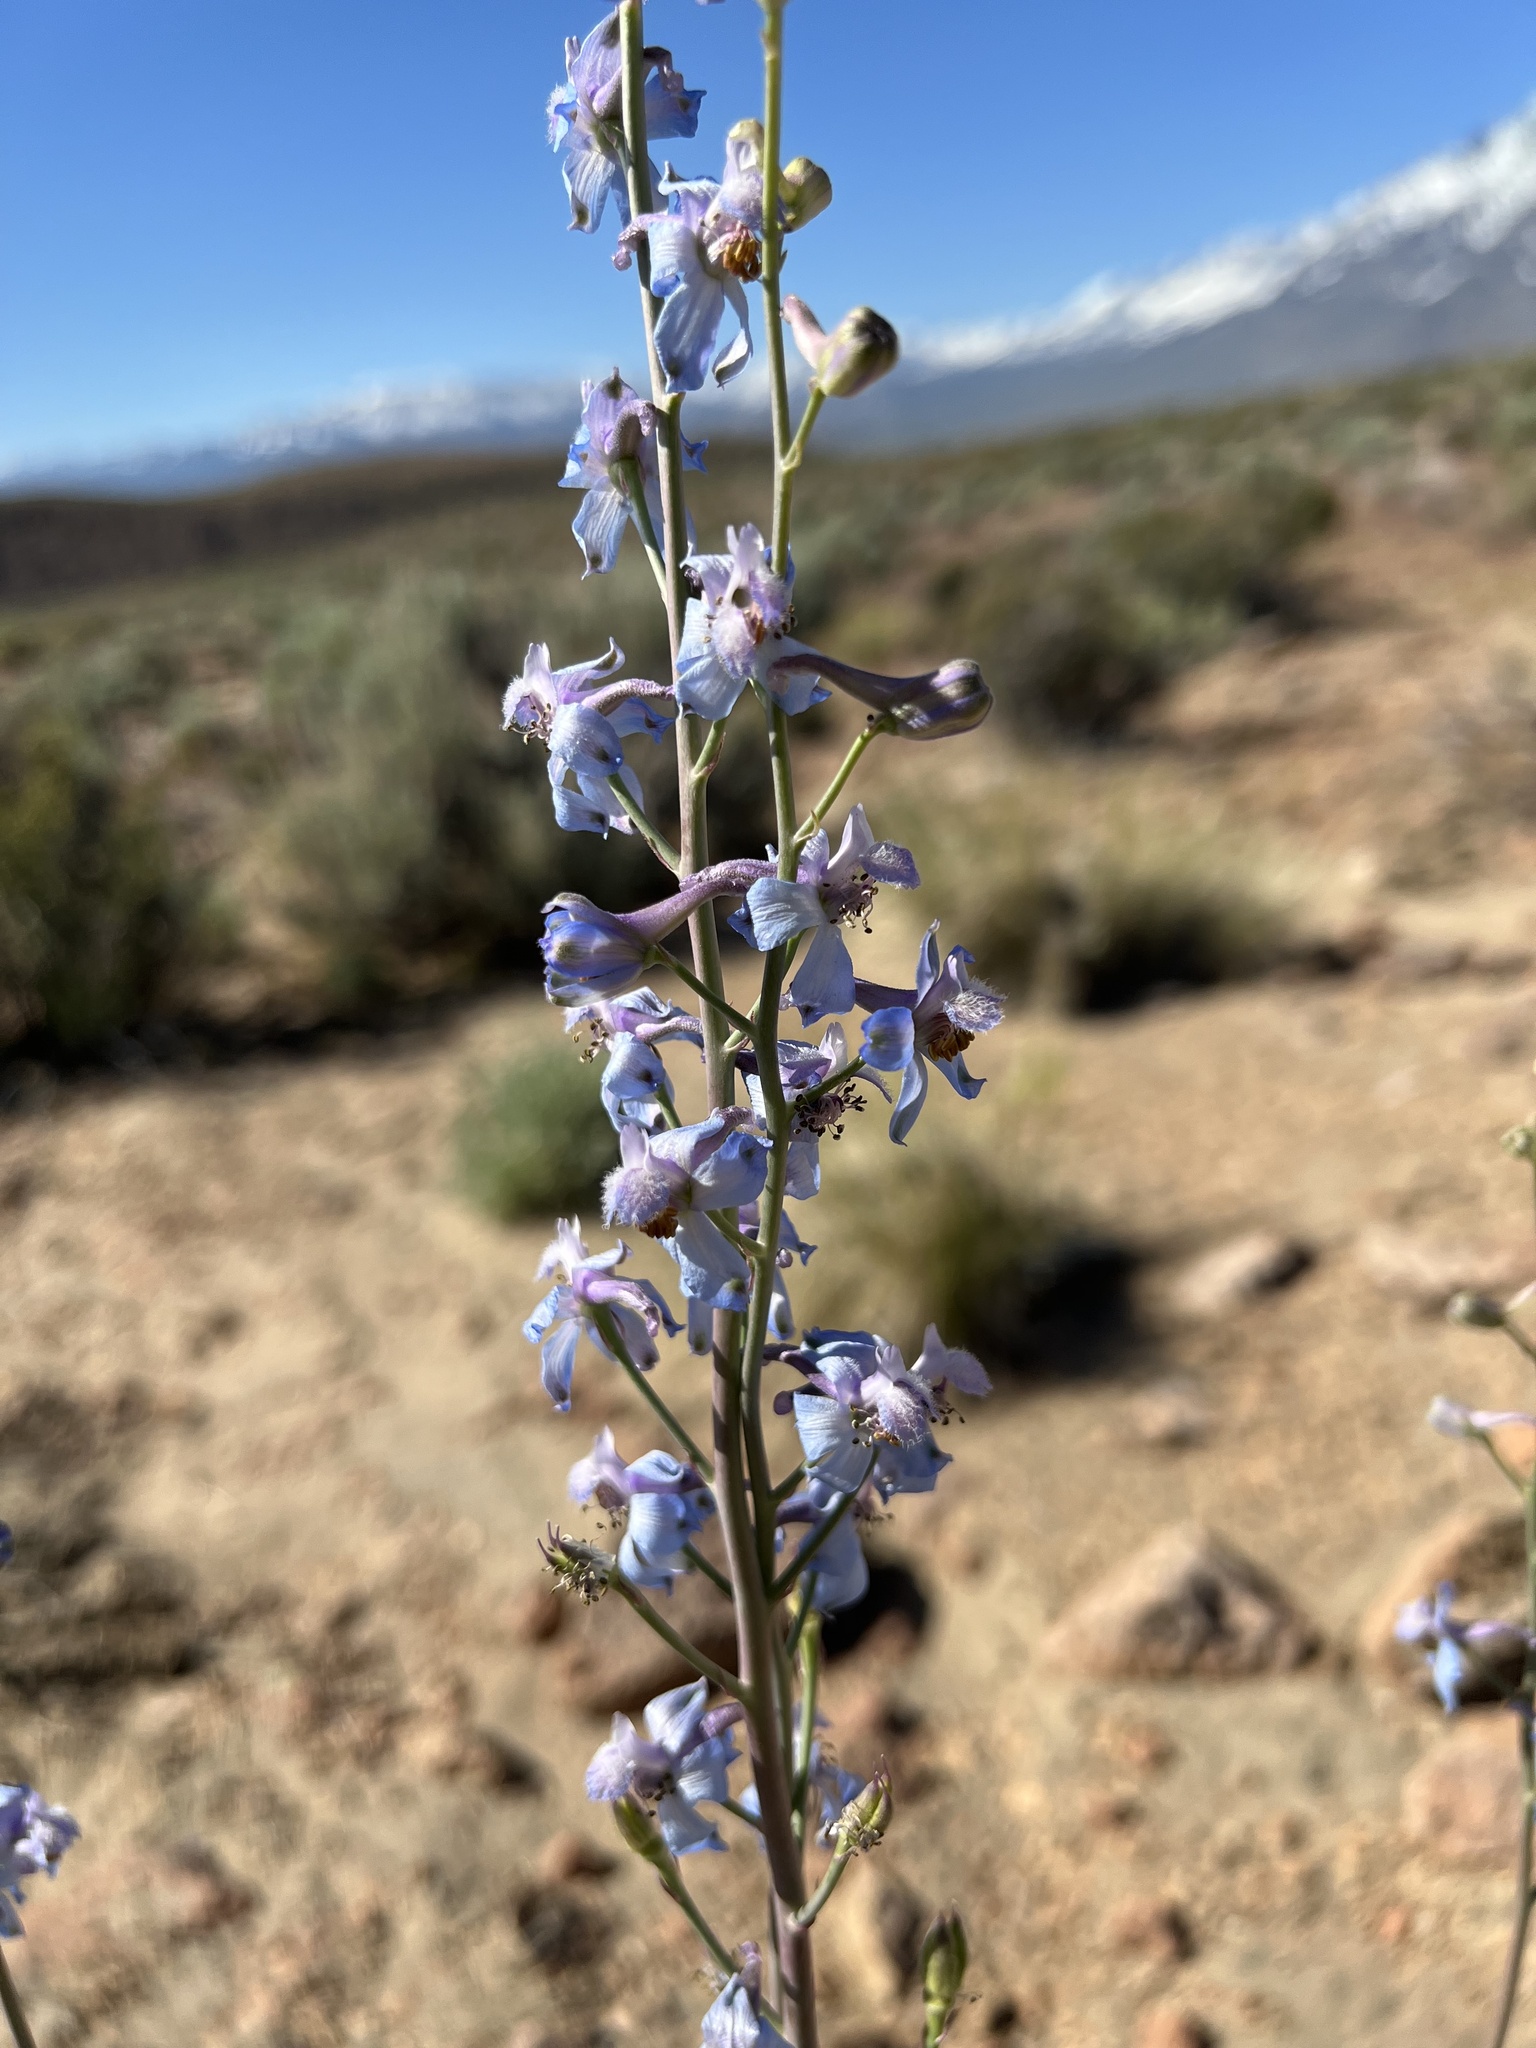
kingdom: Plantae
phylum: Tracheophyta
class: Magnoliopsida
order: Ranunculales
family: Ranunculaceae
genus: Delphinium
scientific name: Delphinium parishii
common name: Apache larkspur
